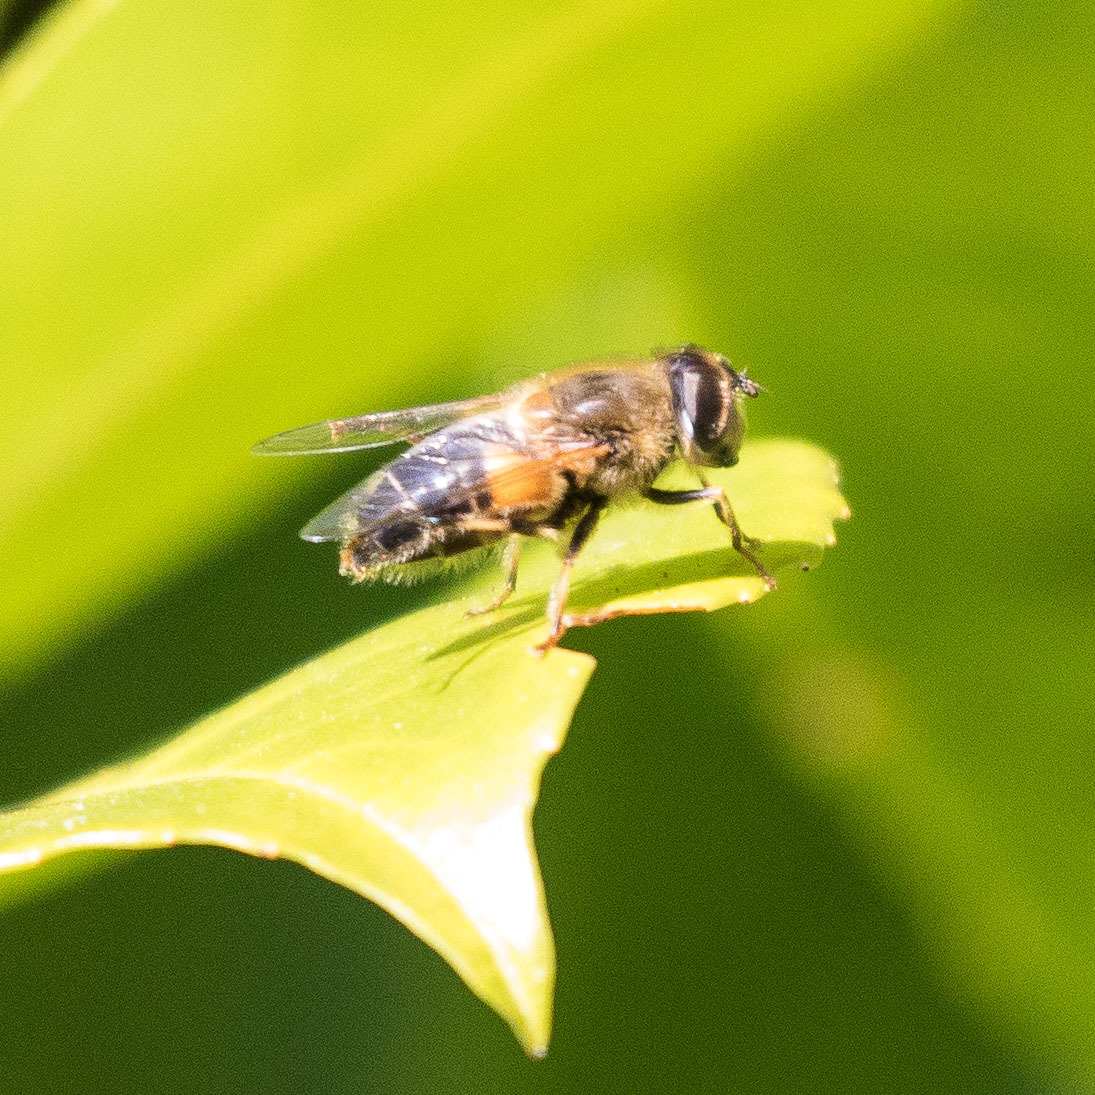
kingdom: Animalia
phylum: Arthropoda
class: Insecta
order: Diptera
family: Syrphidae
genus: Eristalis
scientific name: Eristalis pertinax
